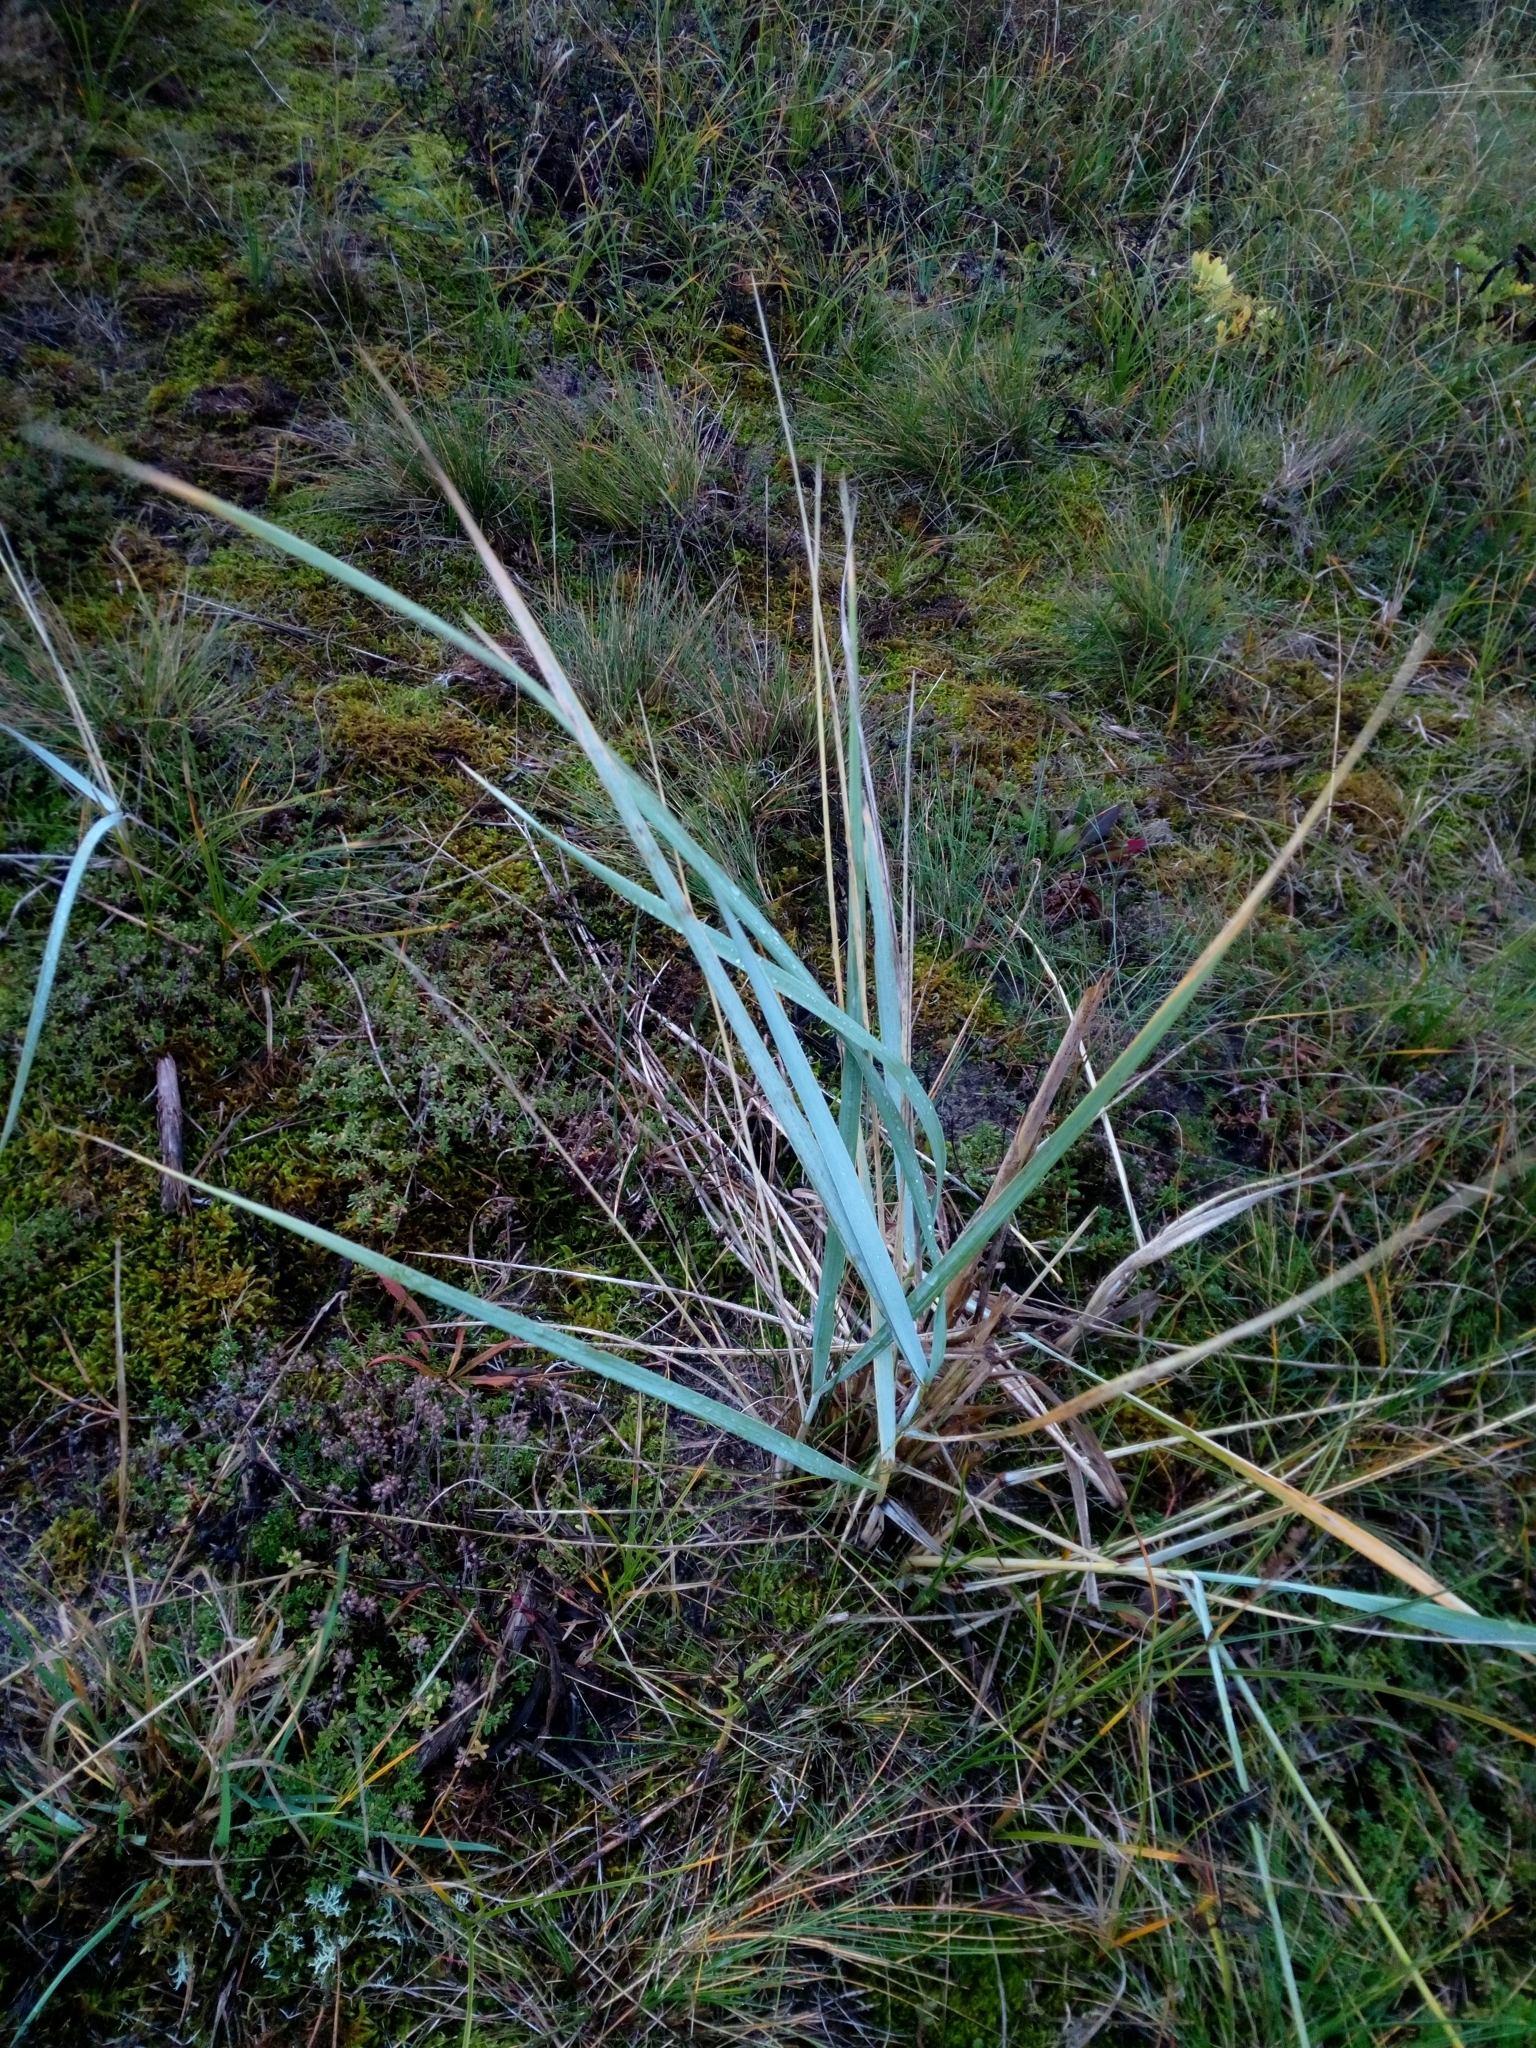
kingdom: Plantae
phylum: Tracheophyta
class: Liliopsida
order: Poales
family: Poaceae
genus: Leymus
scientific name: Leymus arenarius
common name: Lyme-grass
